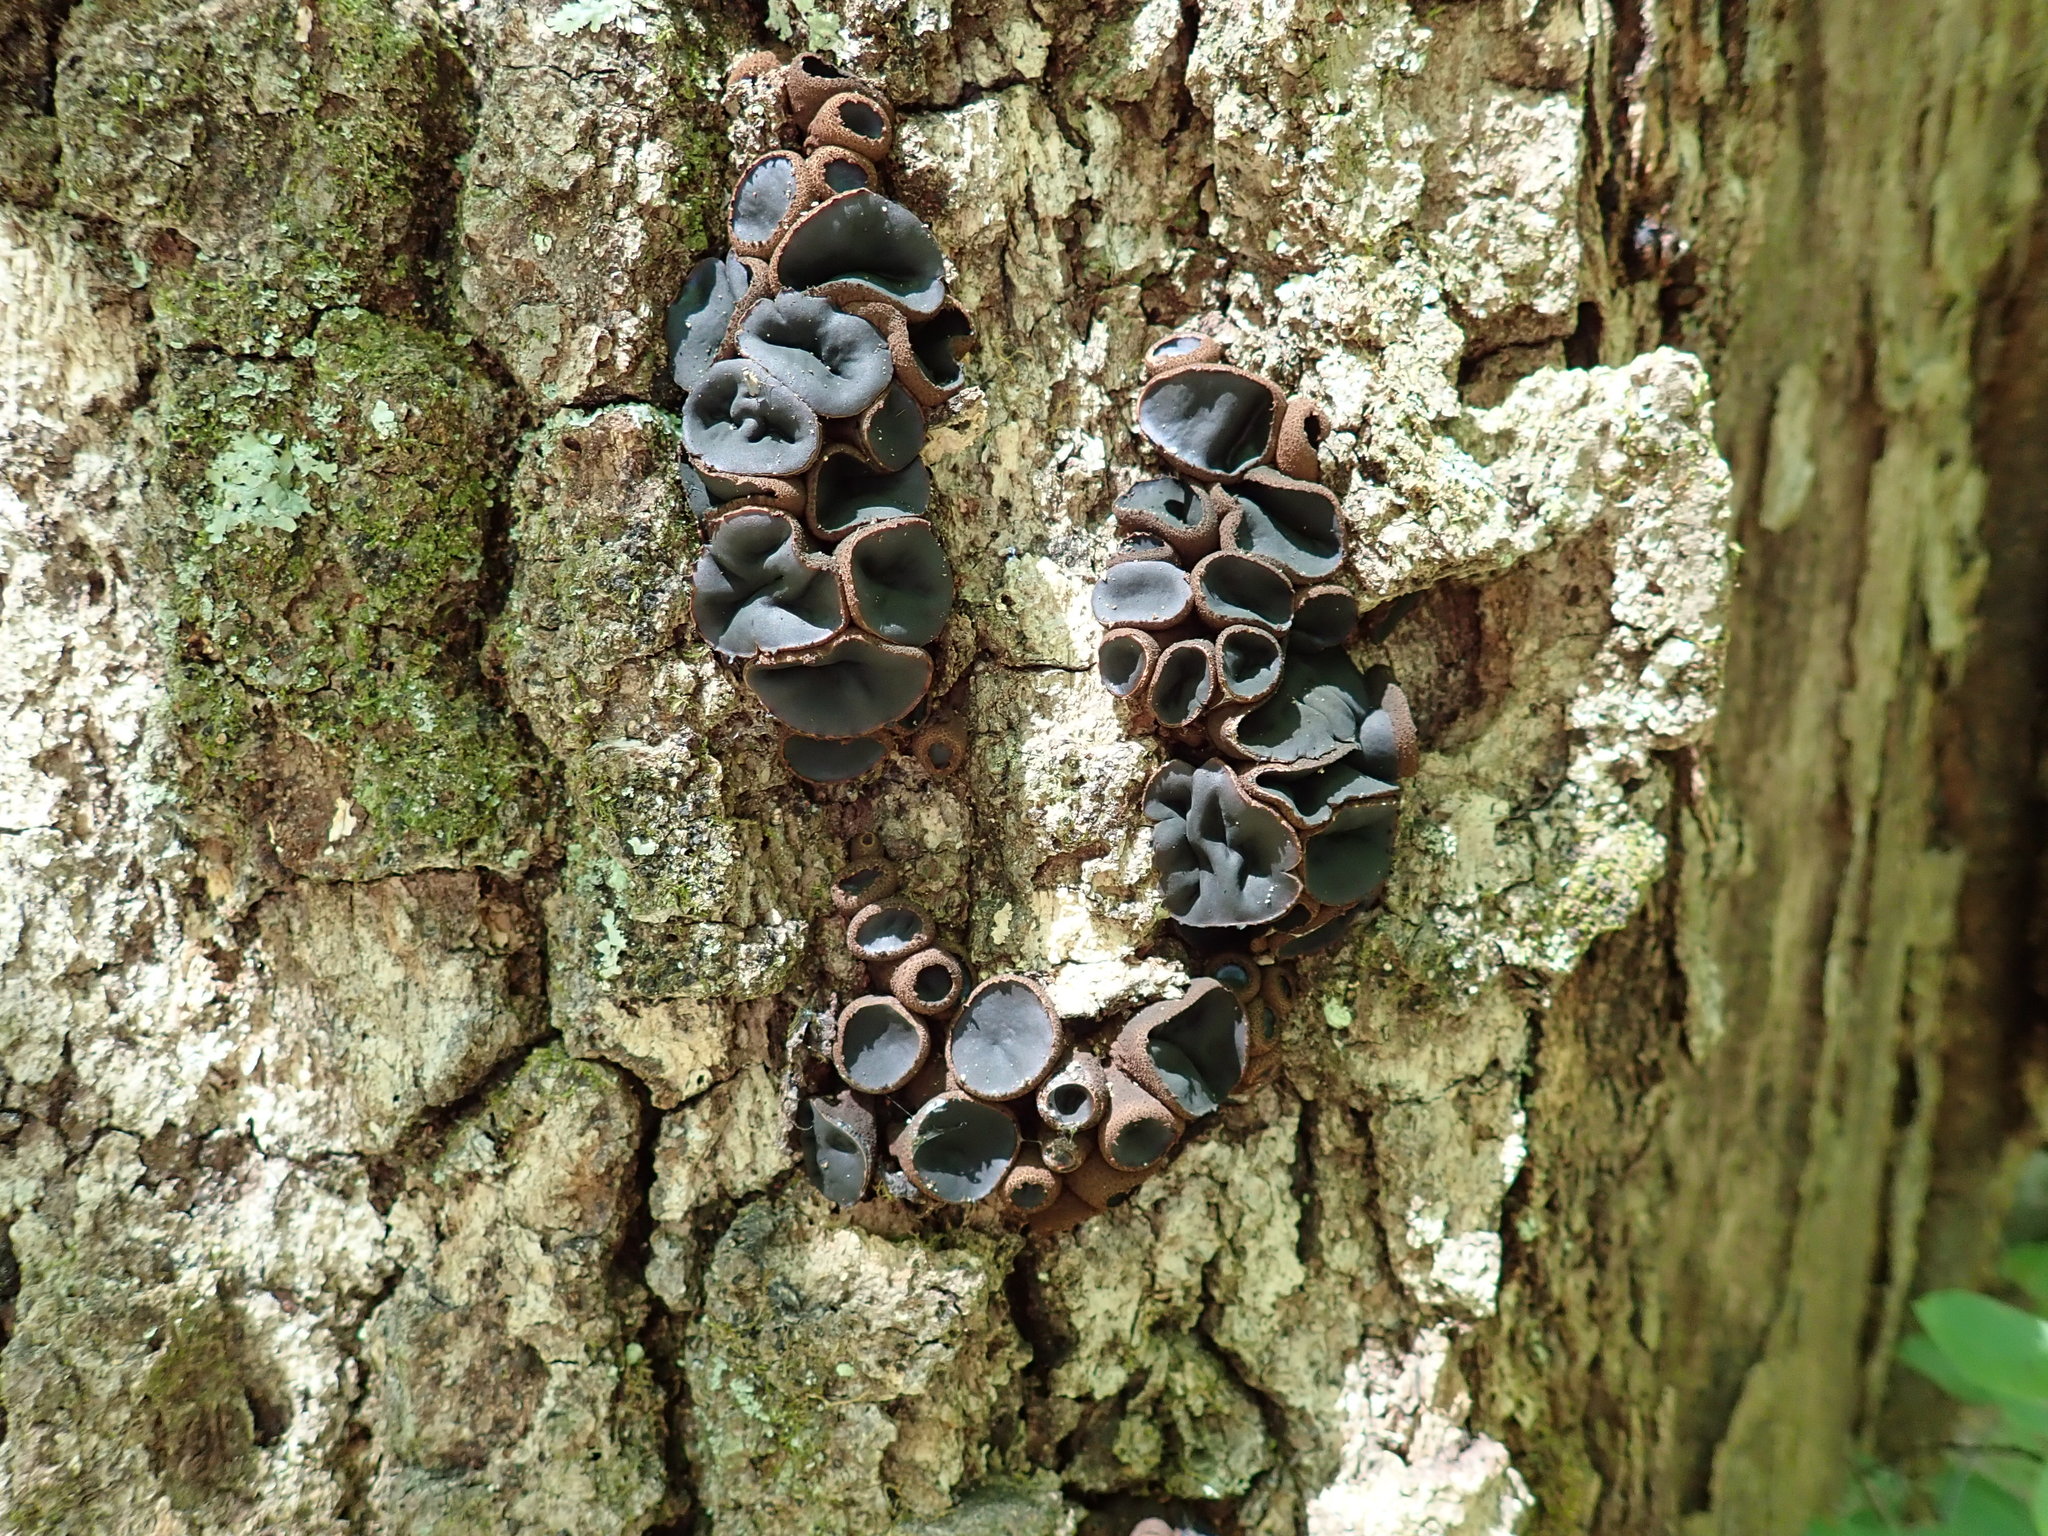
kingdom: Fungi
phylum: Ascomycota
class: Leotiomycetes
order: Phacidiales
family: Phacidiaceae
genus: Bulgaria
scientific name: Bulgaria inquinans
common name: Black bulgar
